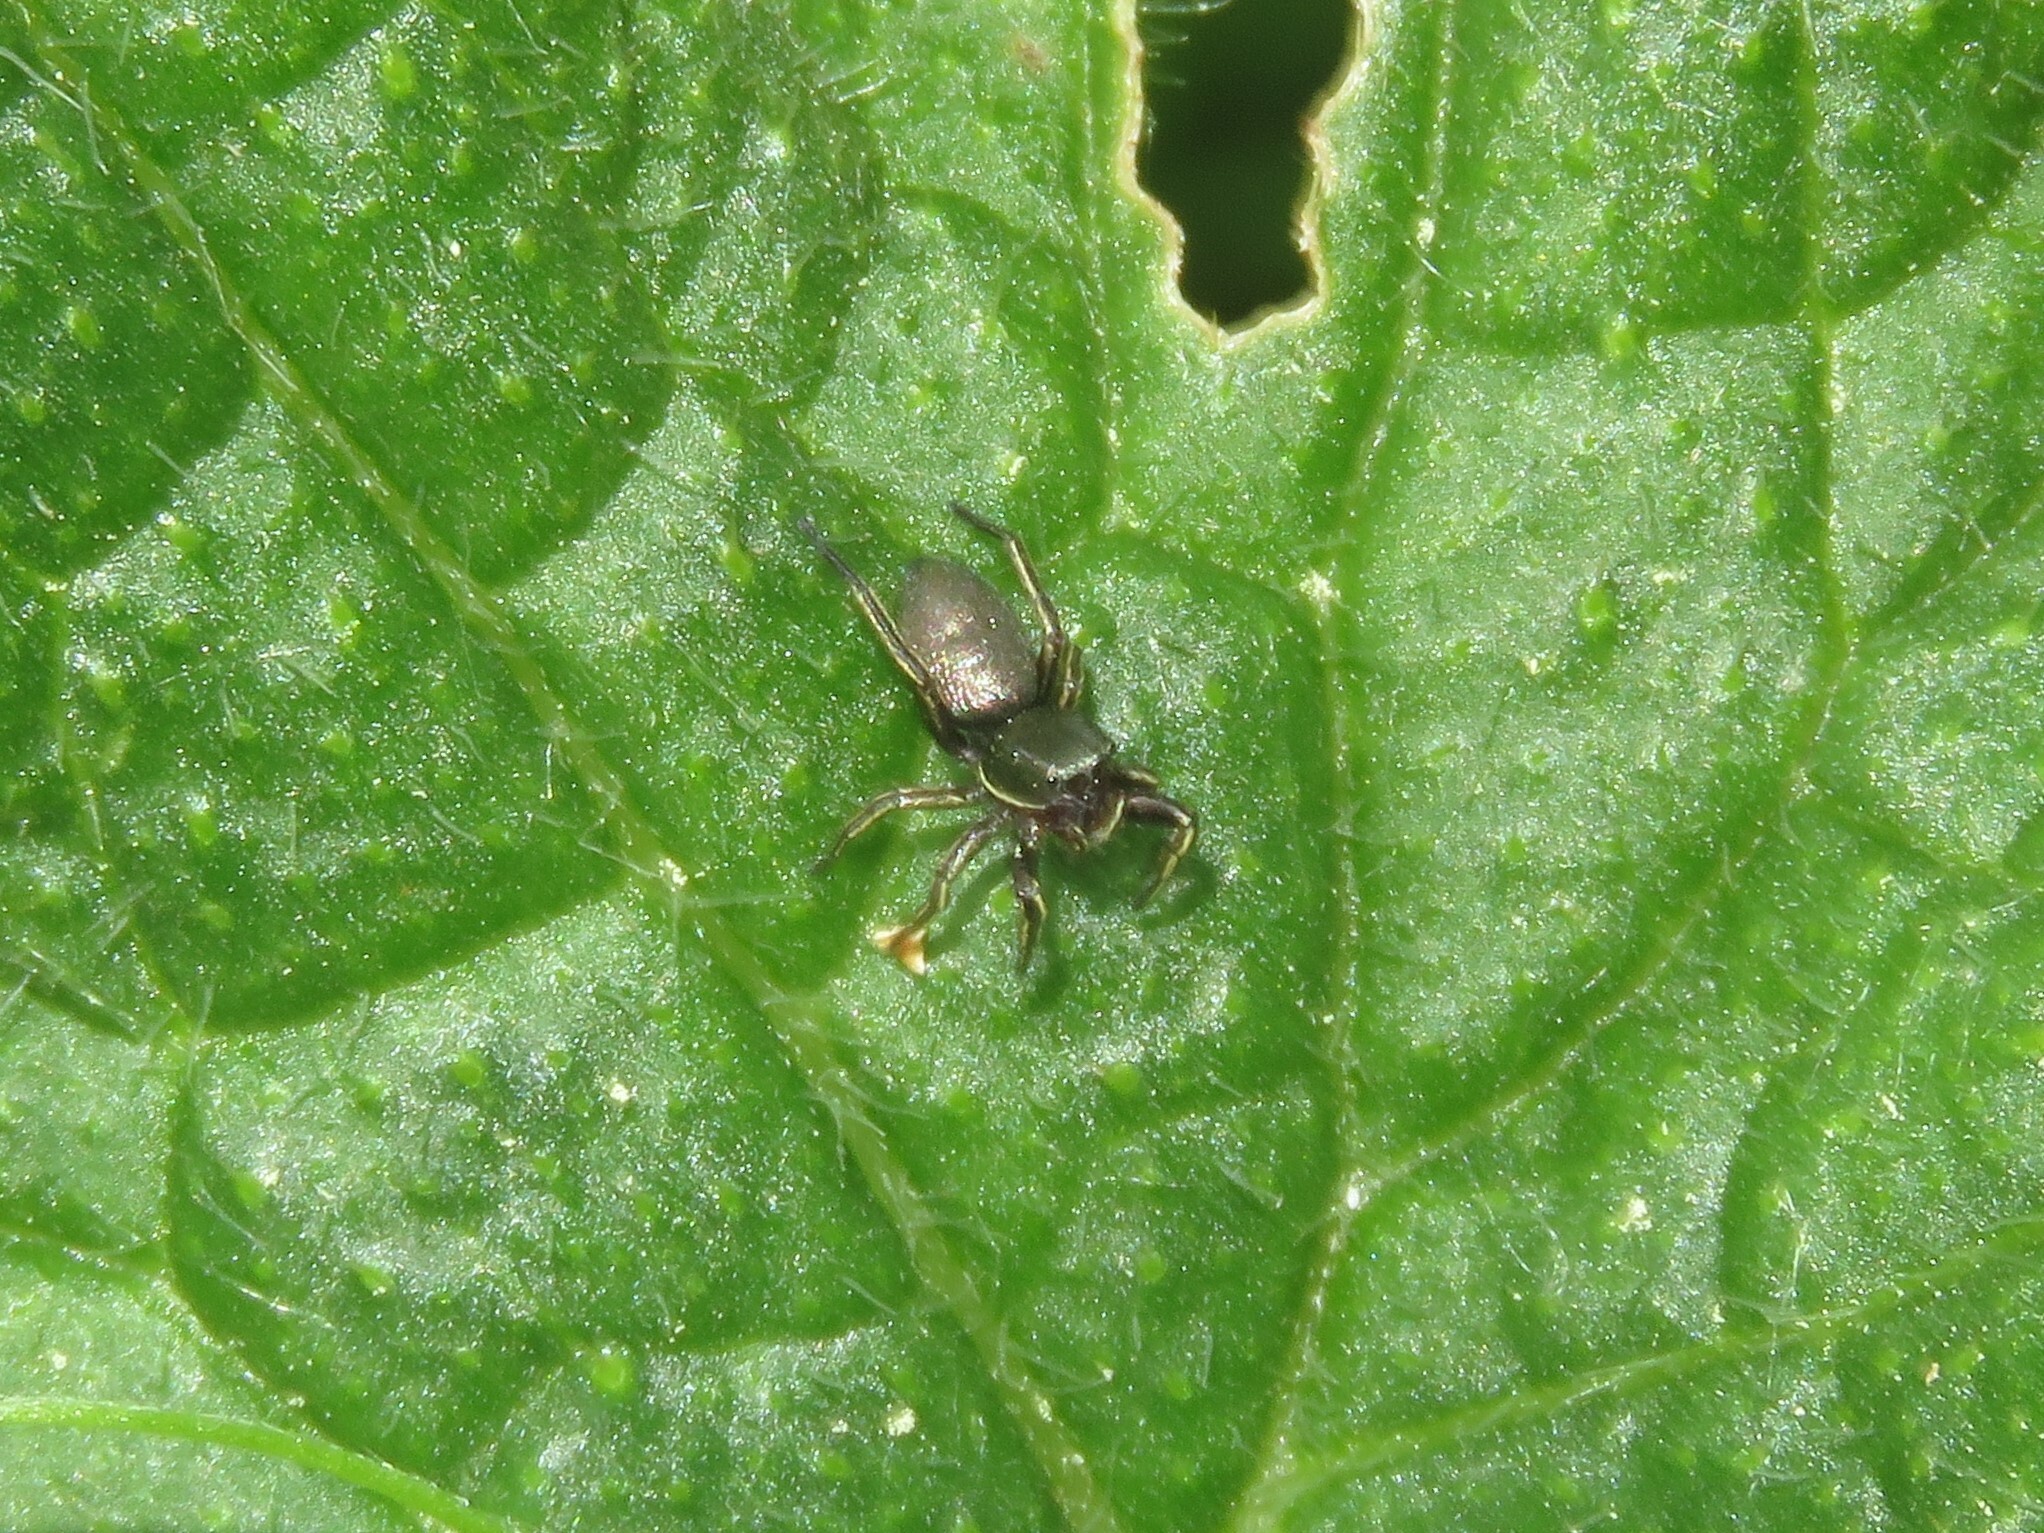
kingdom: Animalia
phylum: Arthropoda
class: Arachnida
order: Araneae
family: Salticidae
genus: Tutelina
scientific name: Tutelina similis
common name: Thick-spined jumping spider
